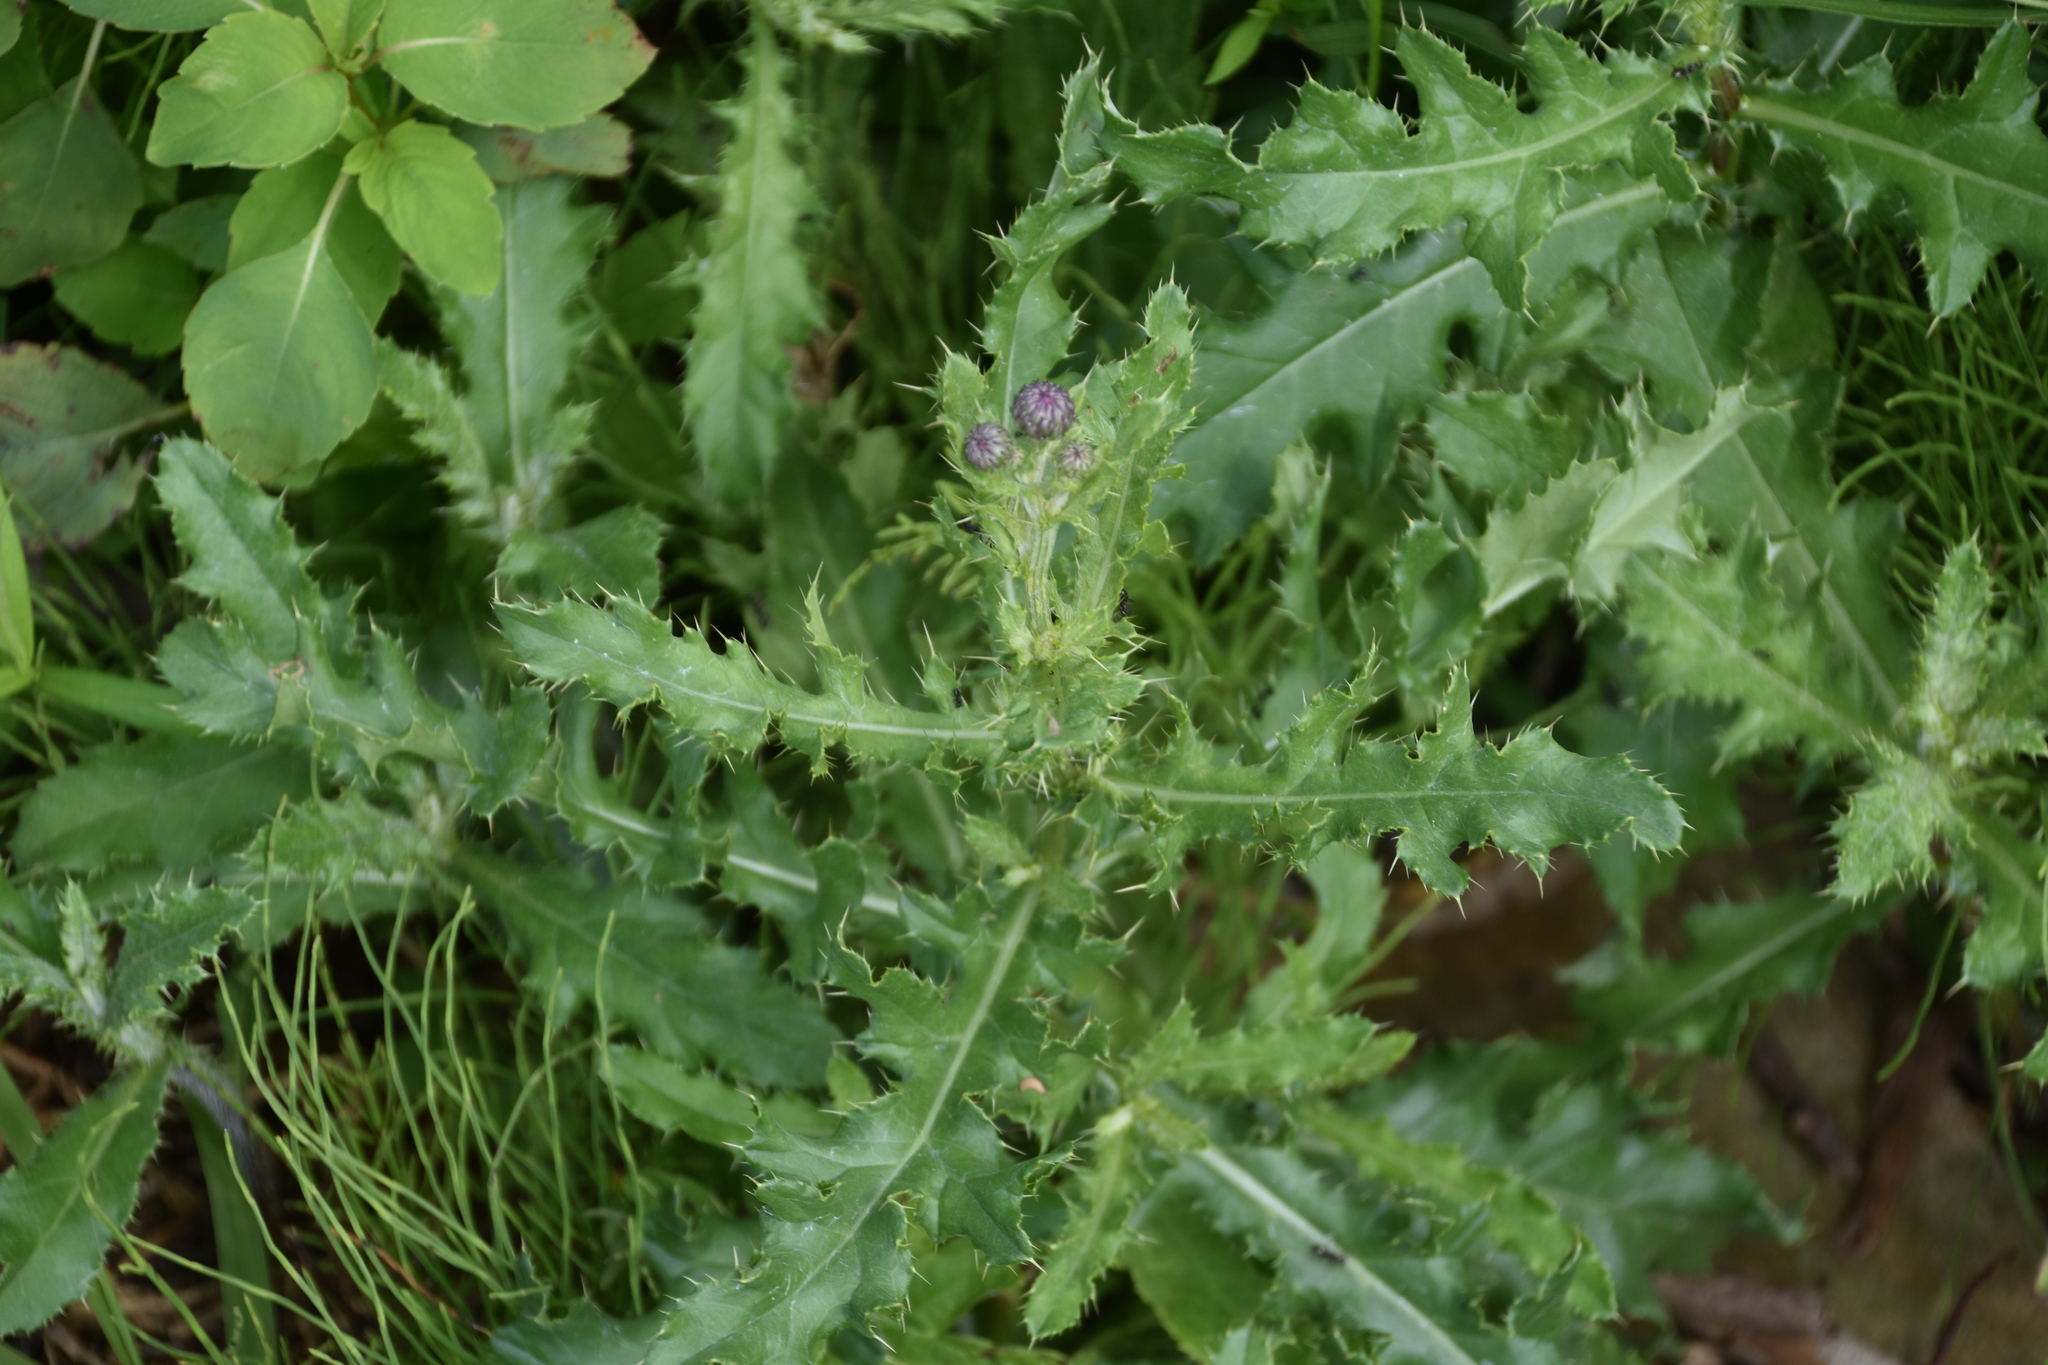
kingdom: Plantae
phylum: Tracheophyta
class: Magnoliopsida
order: Asterales
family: Asteraceae
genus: Cirsium
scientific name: Cirsium arvense
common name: Creeping thistle
